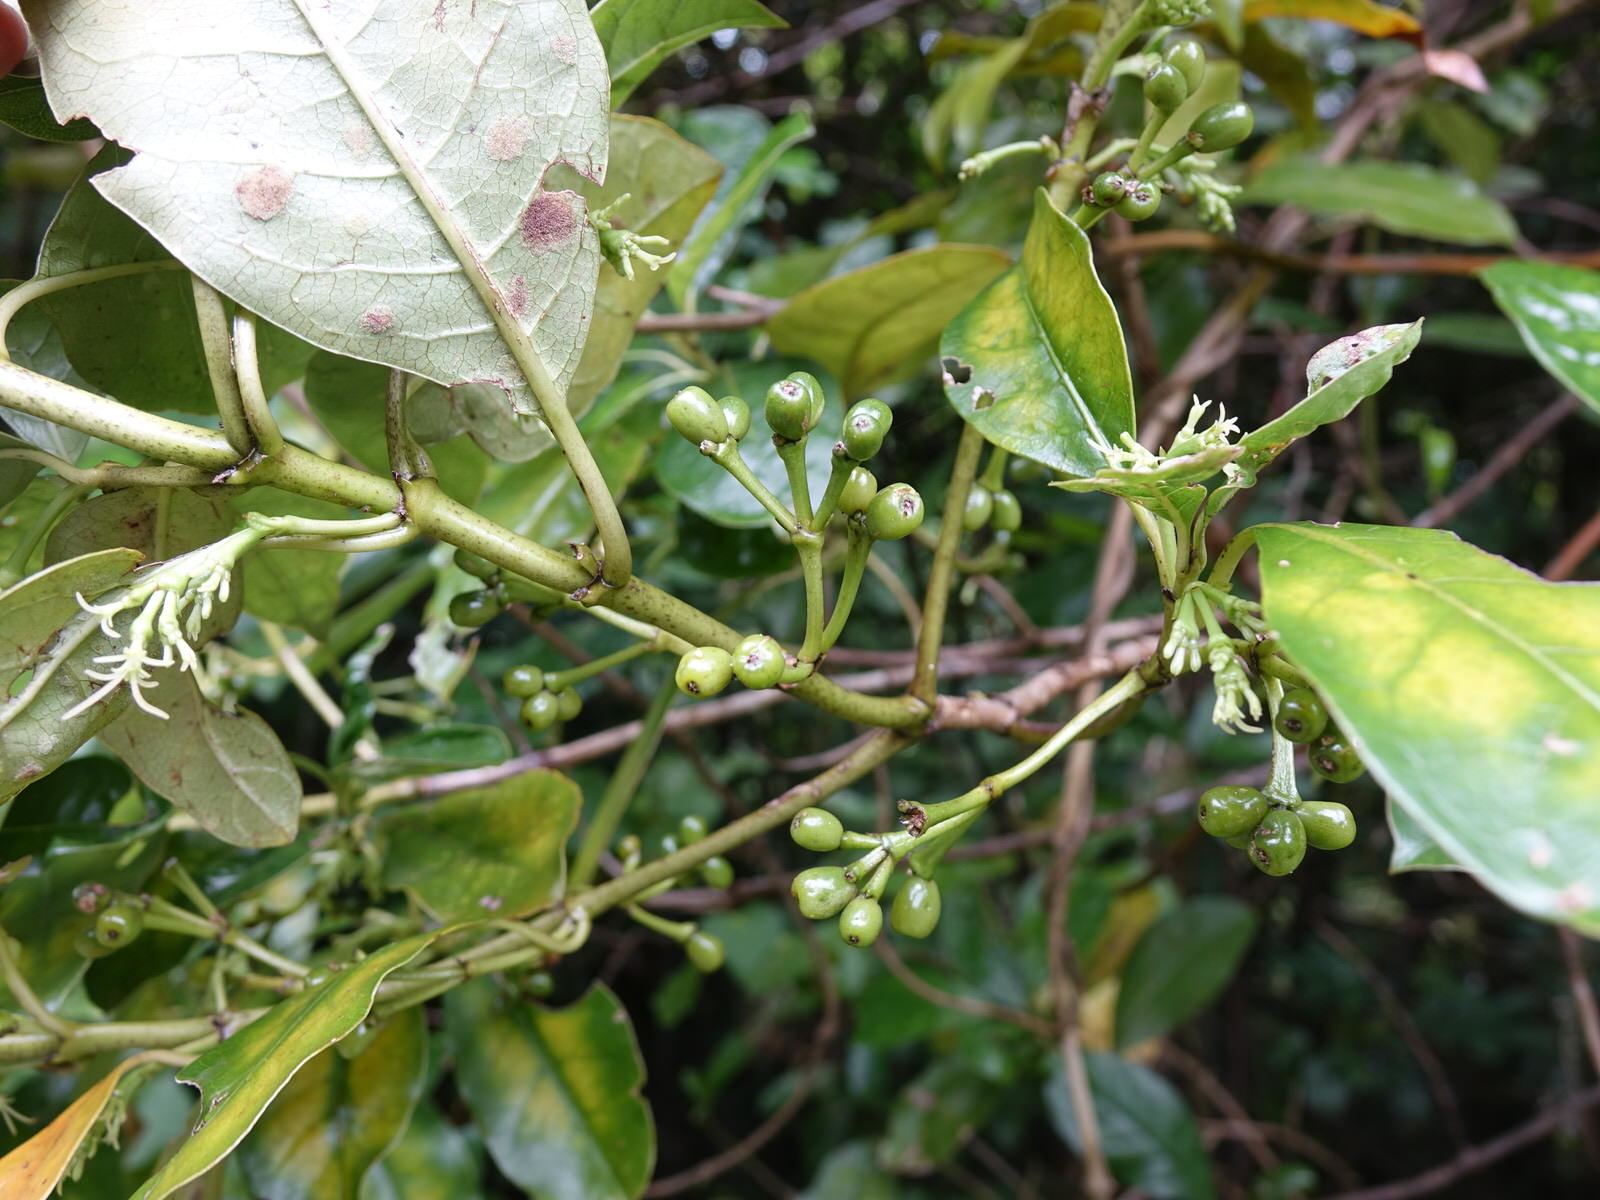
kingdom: Plantae
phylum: Tracheophyta
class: Magnoliopsida
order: Gentianales
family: Rubiaceae
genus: Coprosma
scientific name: Coprosma autumnalis
